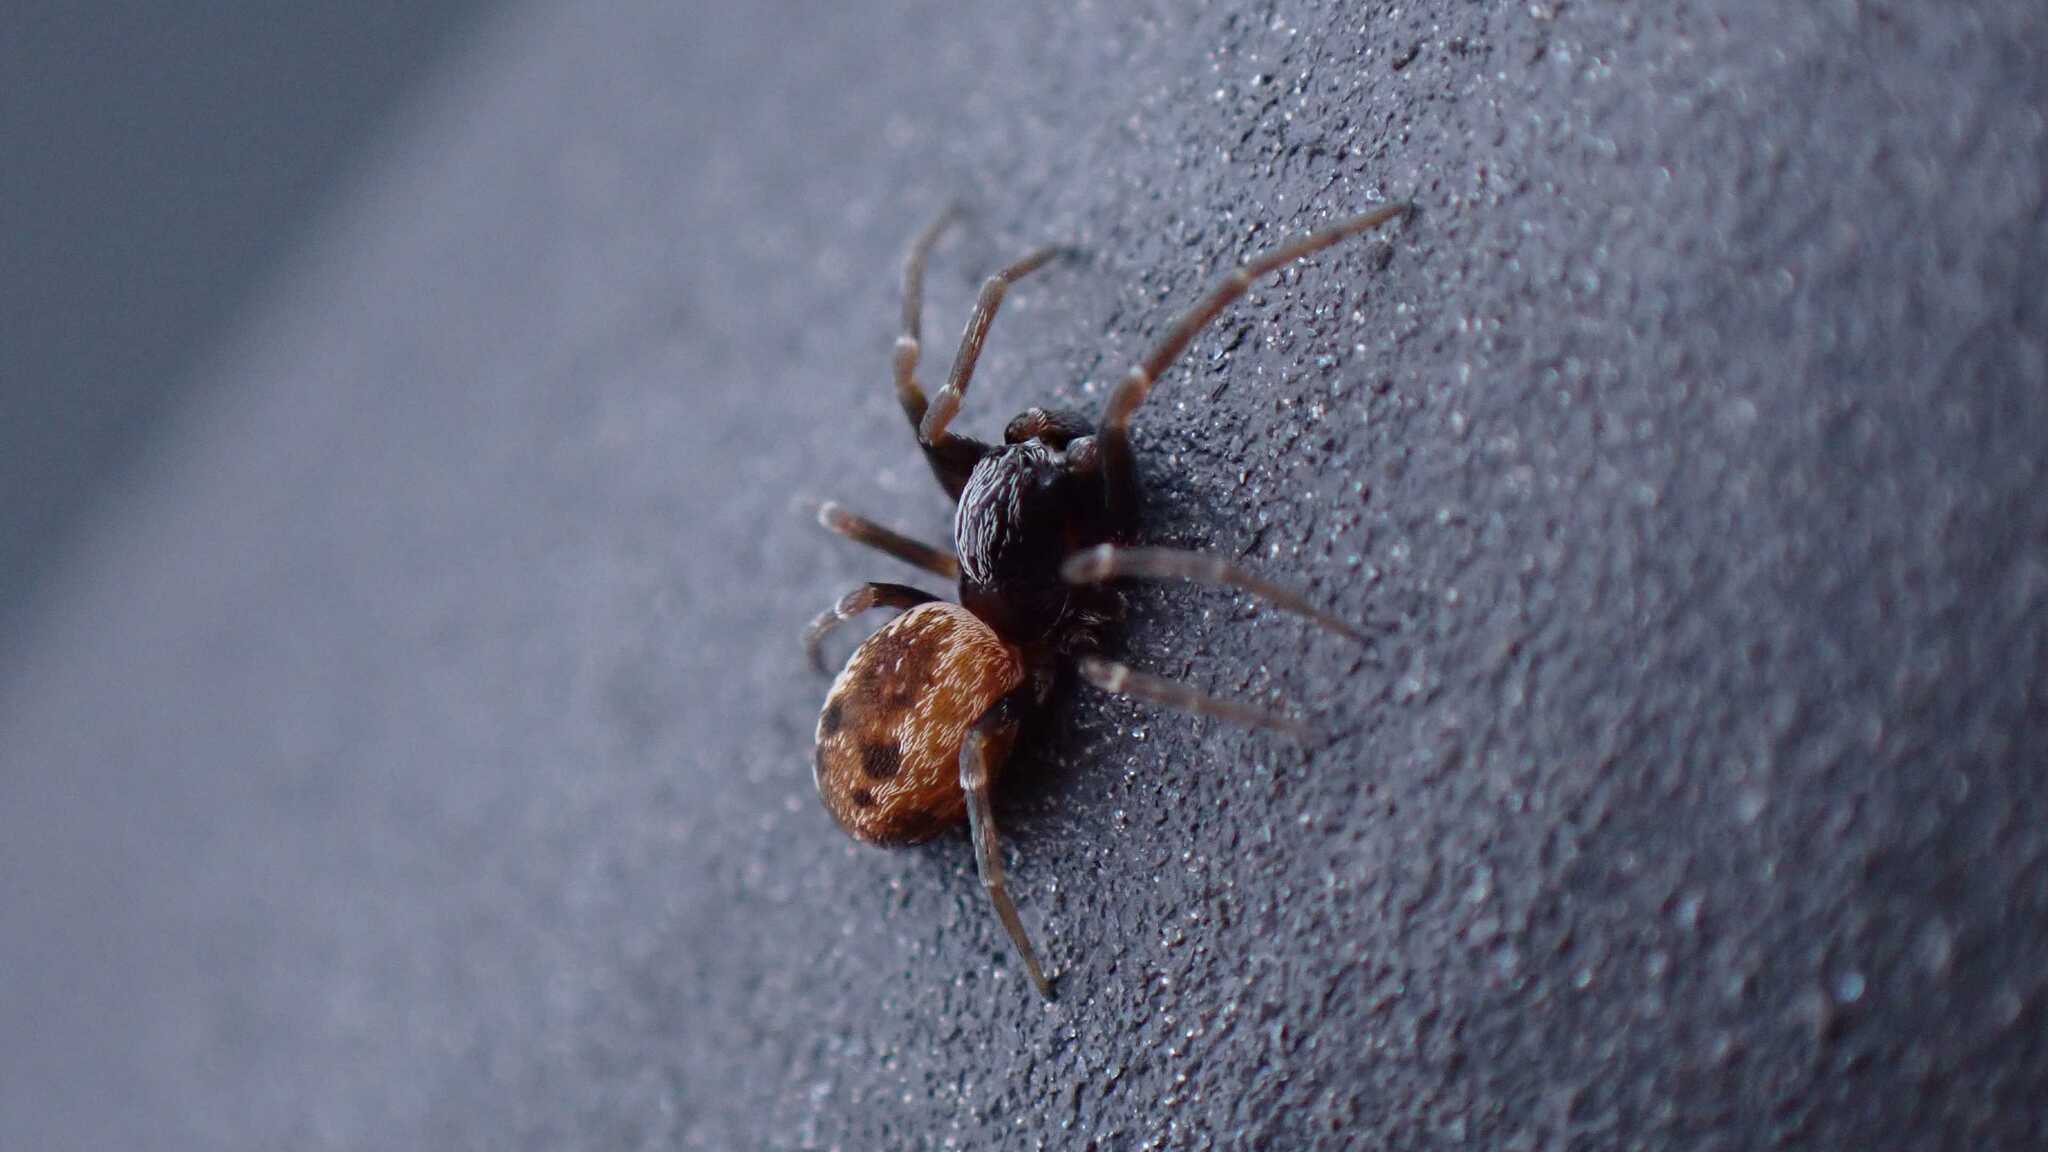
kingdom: Animalia
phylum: Arthropoda
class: Arachnida
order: Araneae
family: Dictynidae
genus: Brigittea
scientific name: Brigittea civica
